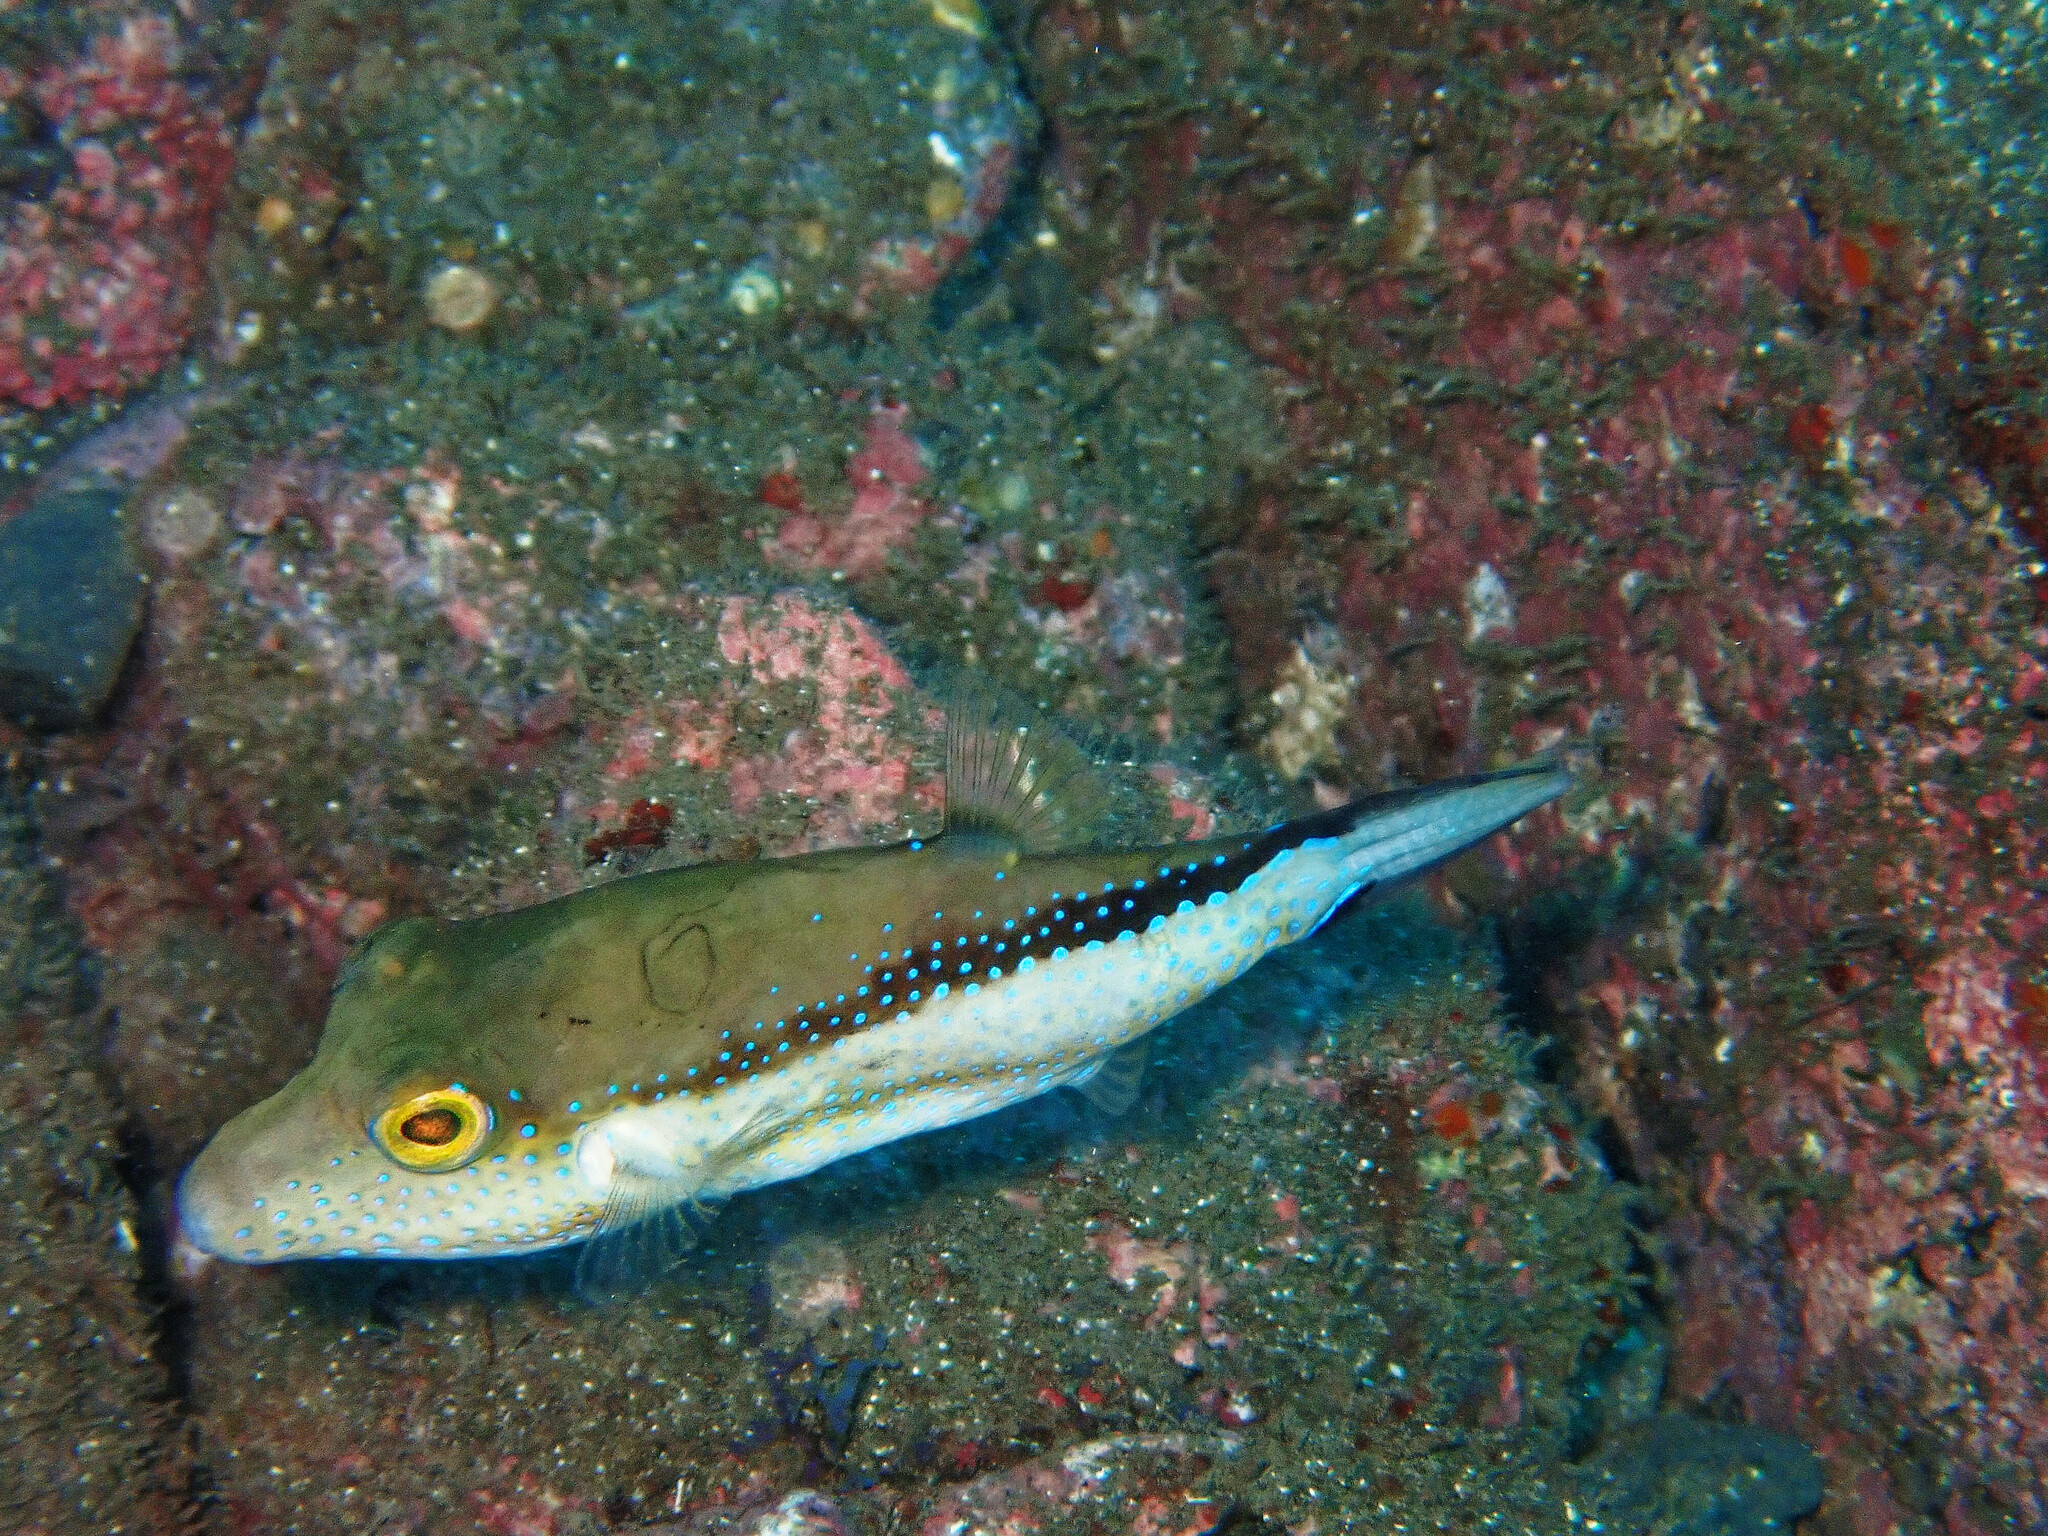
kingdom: Animalia
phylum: Chordata
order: Tetraodontiformes
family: Tetraodontidae
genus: Canthigaster
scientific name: Canthigaster capistrata
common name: Macaronesian sharpnose-puffer
